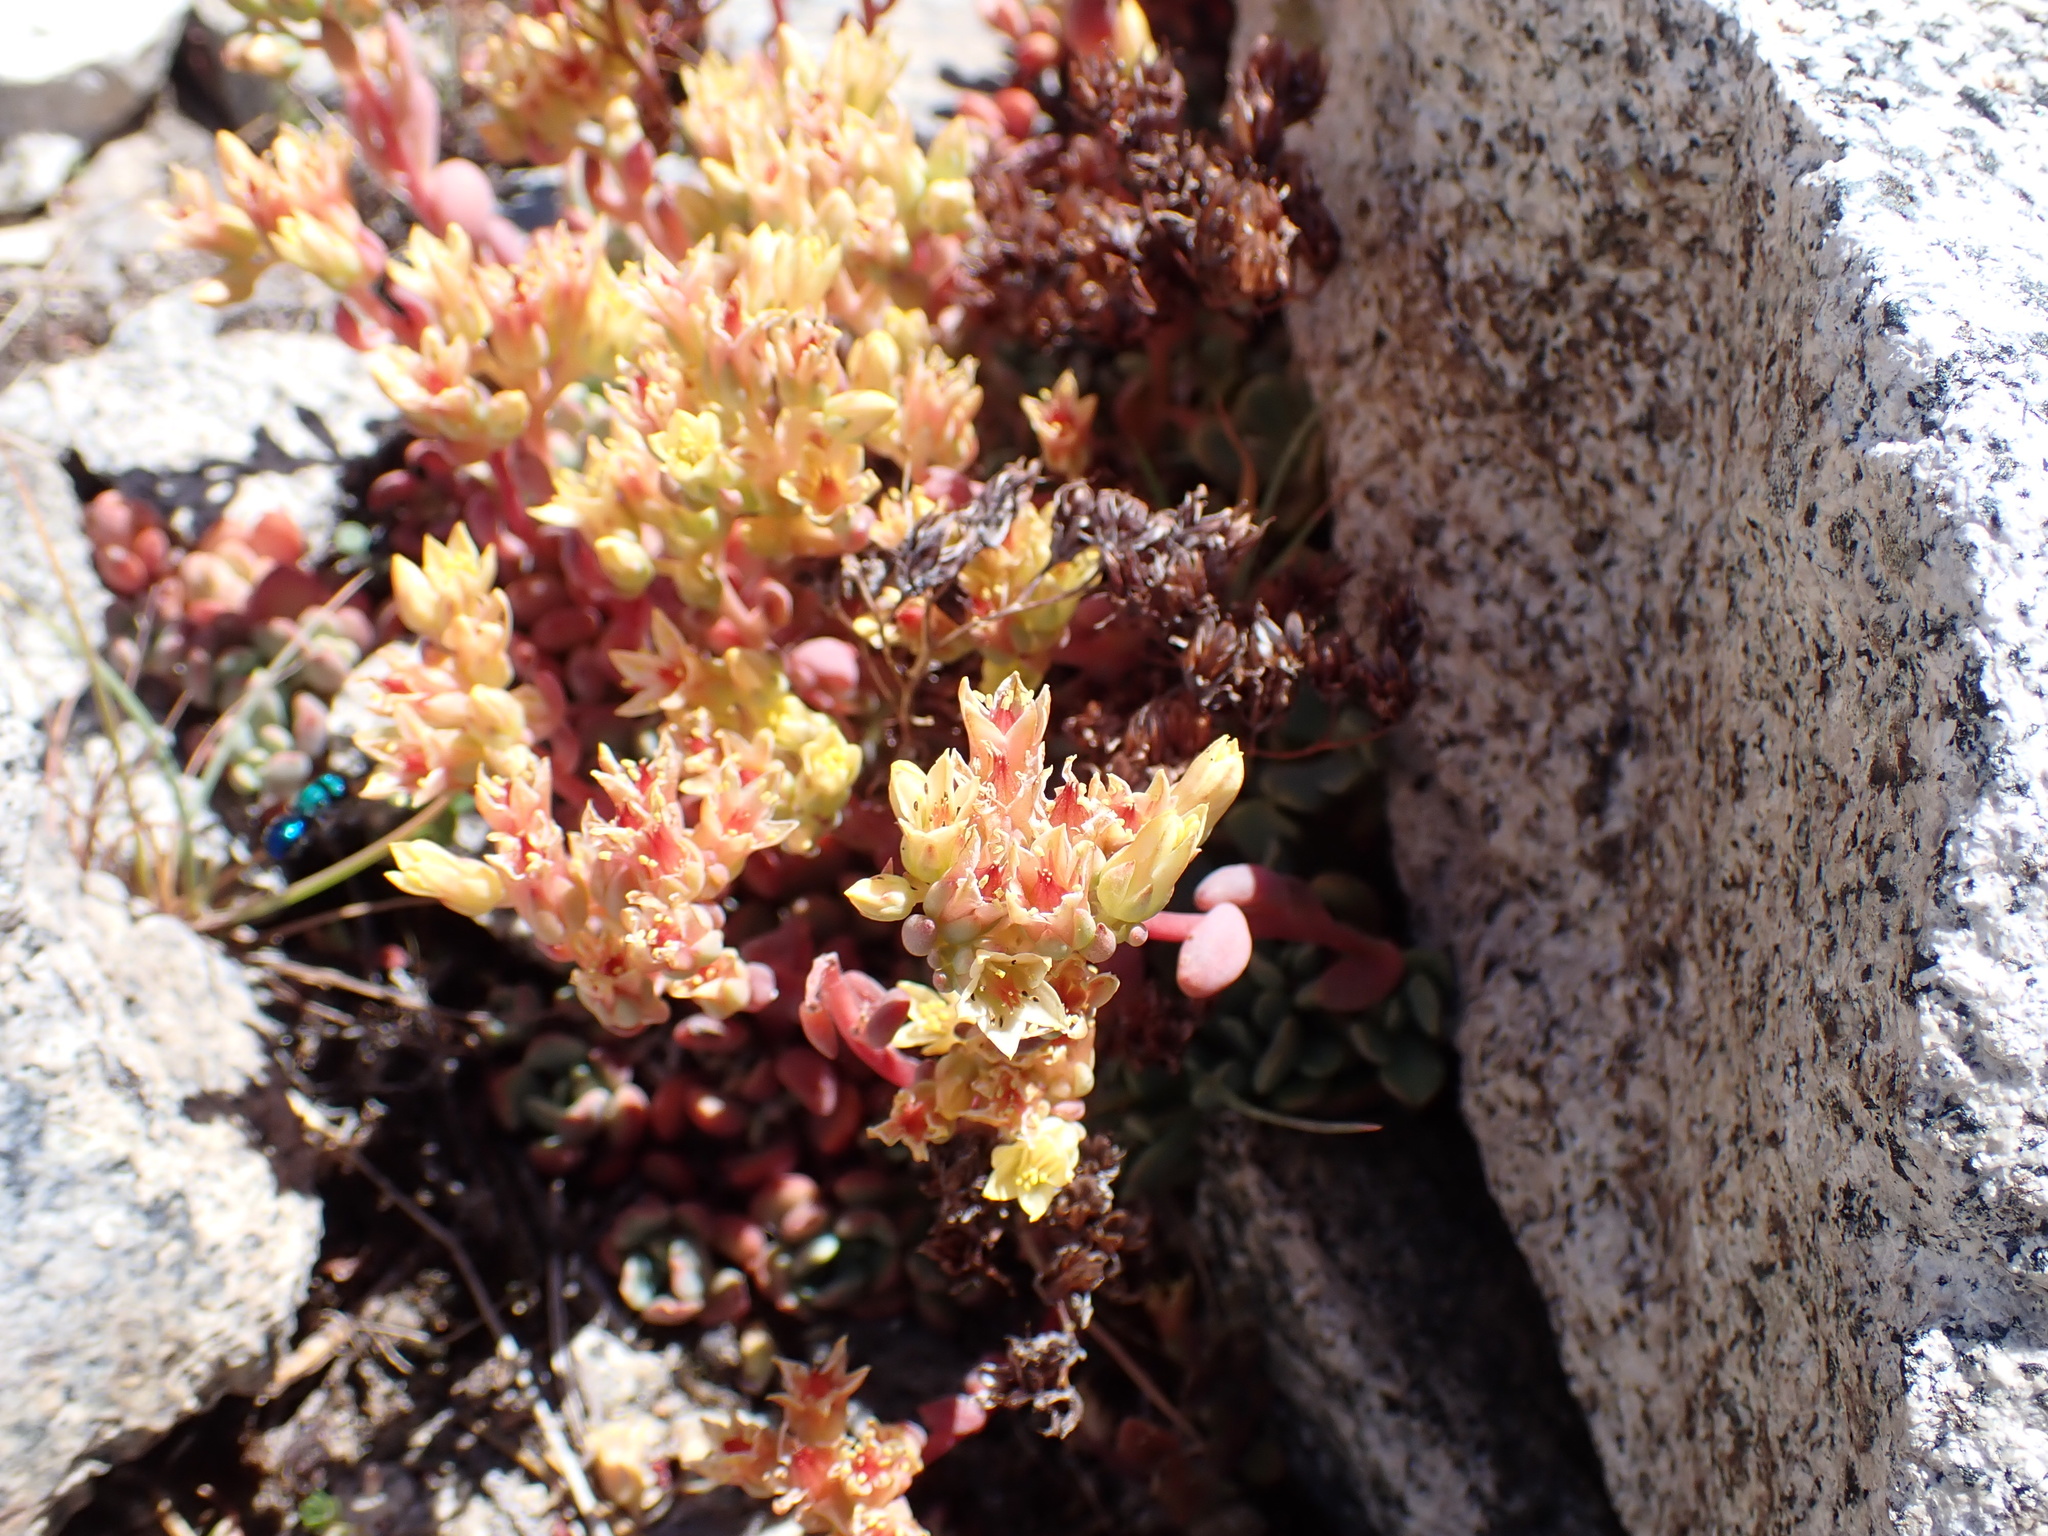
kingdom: Plantae
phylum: Tracheophyta
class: Magnoliopsida
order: Saxifragales
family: Crassulaceae
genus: Sedum
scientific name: Sedum obtusatum
